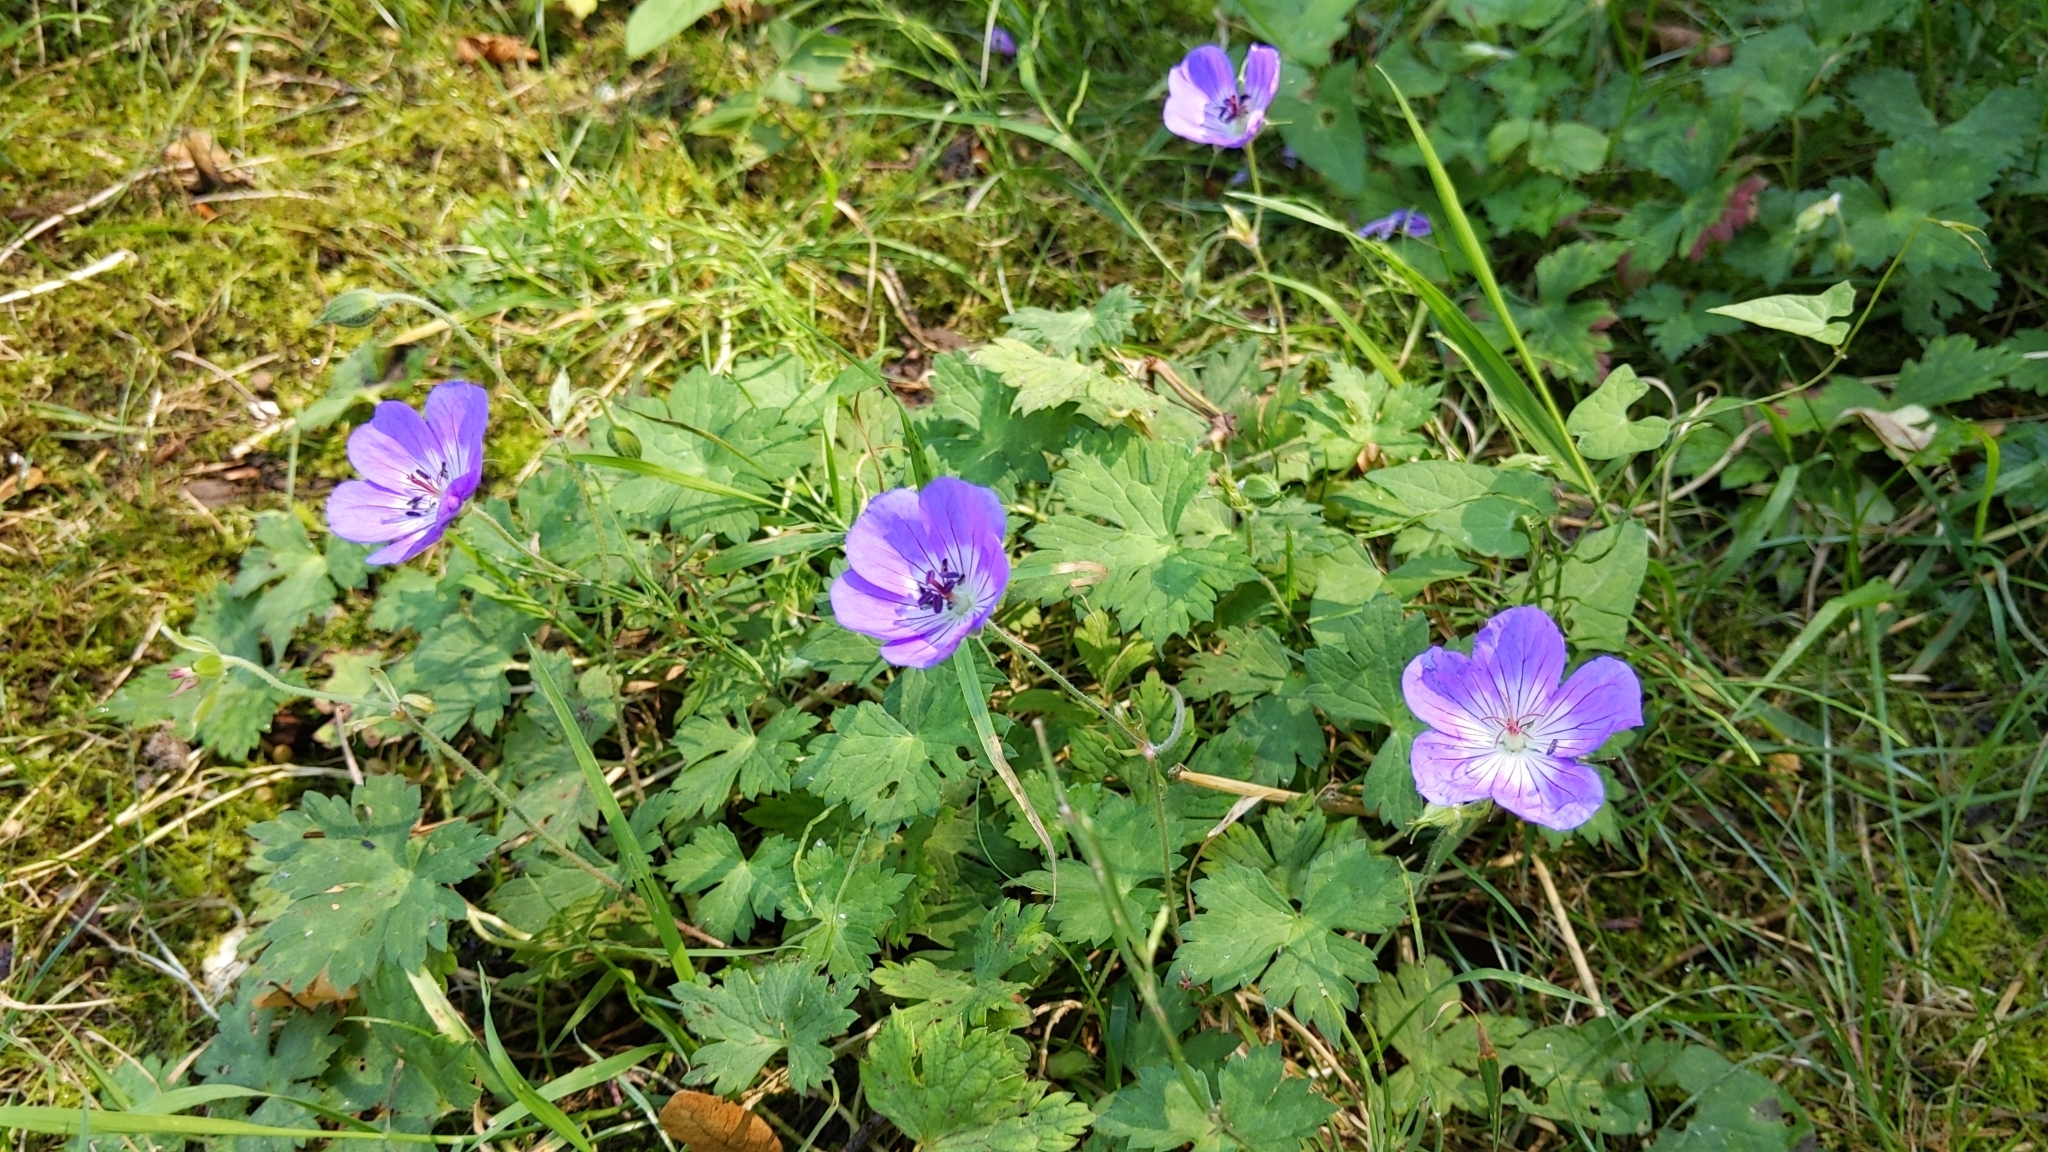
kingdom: Plantae
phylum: Tracheophyta
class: Magnoliopsida
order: Geraniales
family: Geraniaceae
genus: Geranium
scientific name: Geranium sylvaticum
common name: Wood crane's-bill
